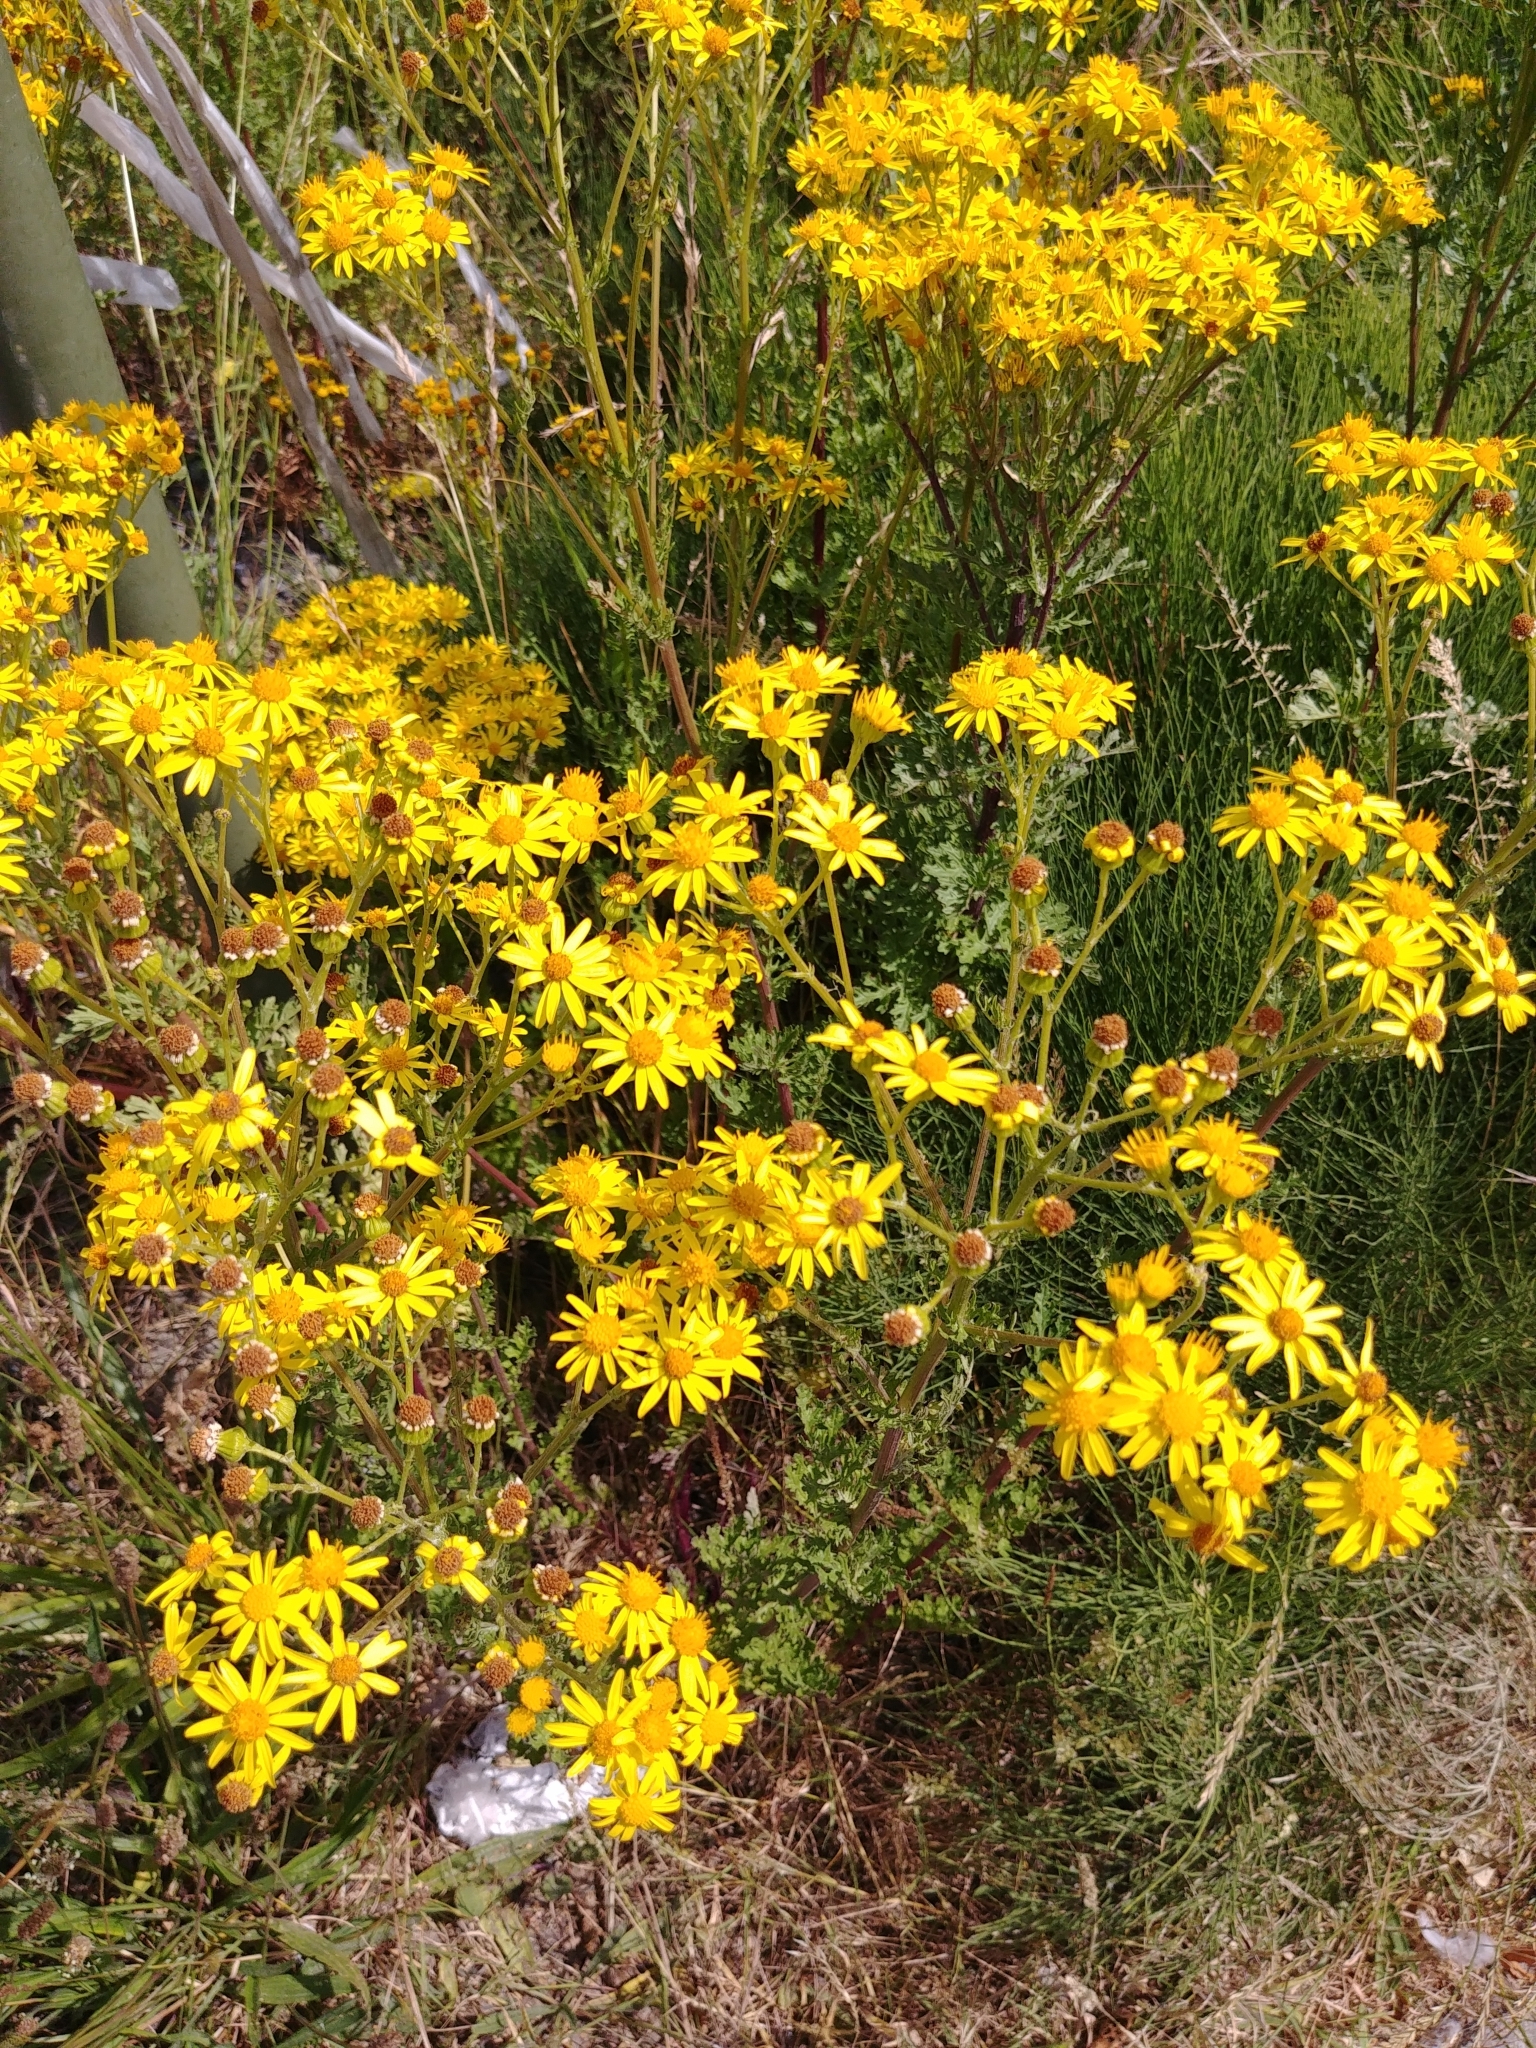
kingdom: Plantae
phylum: Tracheophyta
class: Magnoliopsida
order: Asterales
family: Asteraceae
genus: Jacobaea
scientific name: Jacobaea vulgaris
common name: Stinking willie
